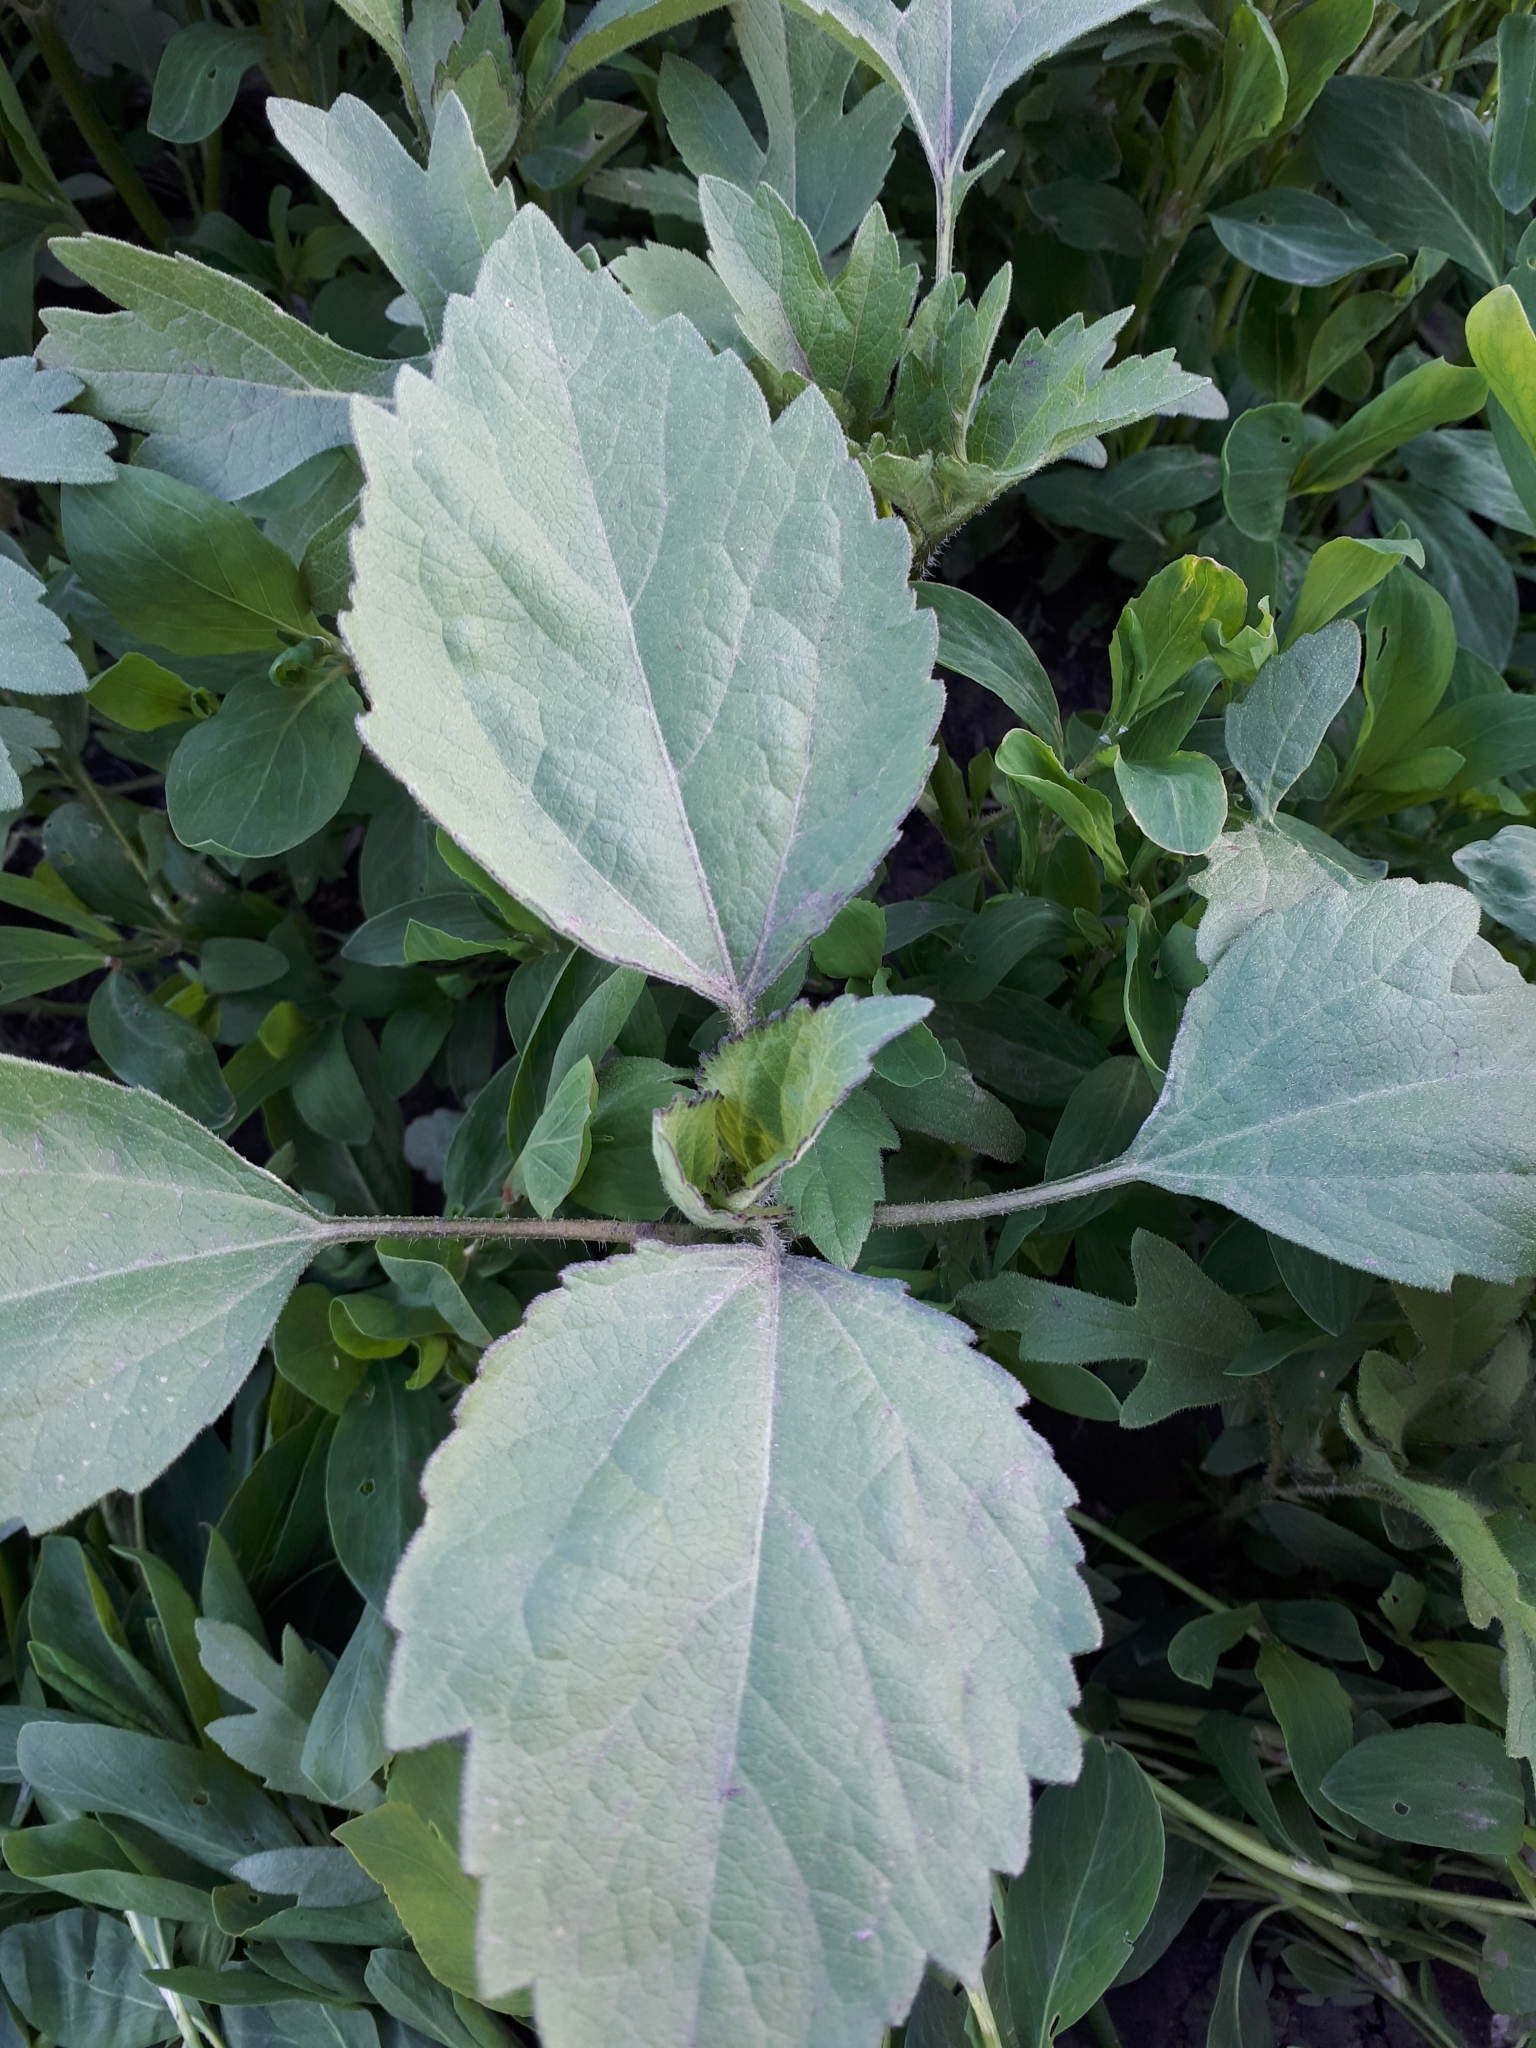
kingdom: Plantae
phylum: Tracheophyta
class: Magnoliopsida
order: Asterales
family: Asteraceae
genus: Cyclachaena
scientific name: Cyclachaena xanthiifolia
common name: Giant sumpweed
